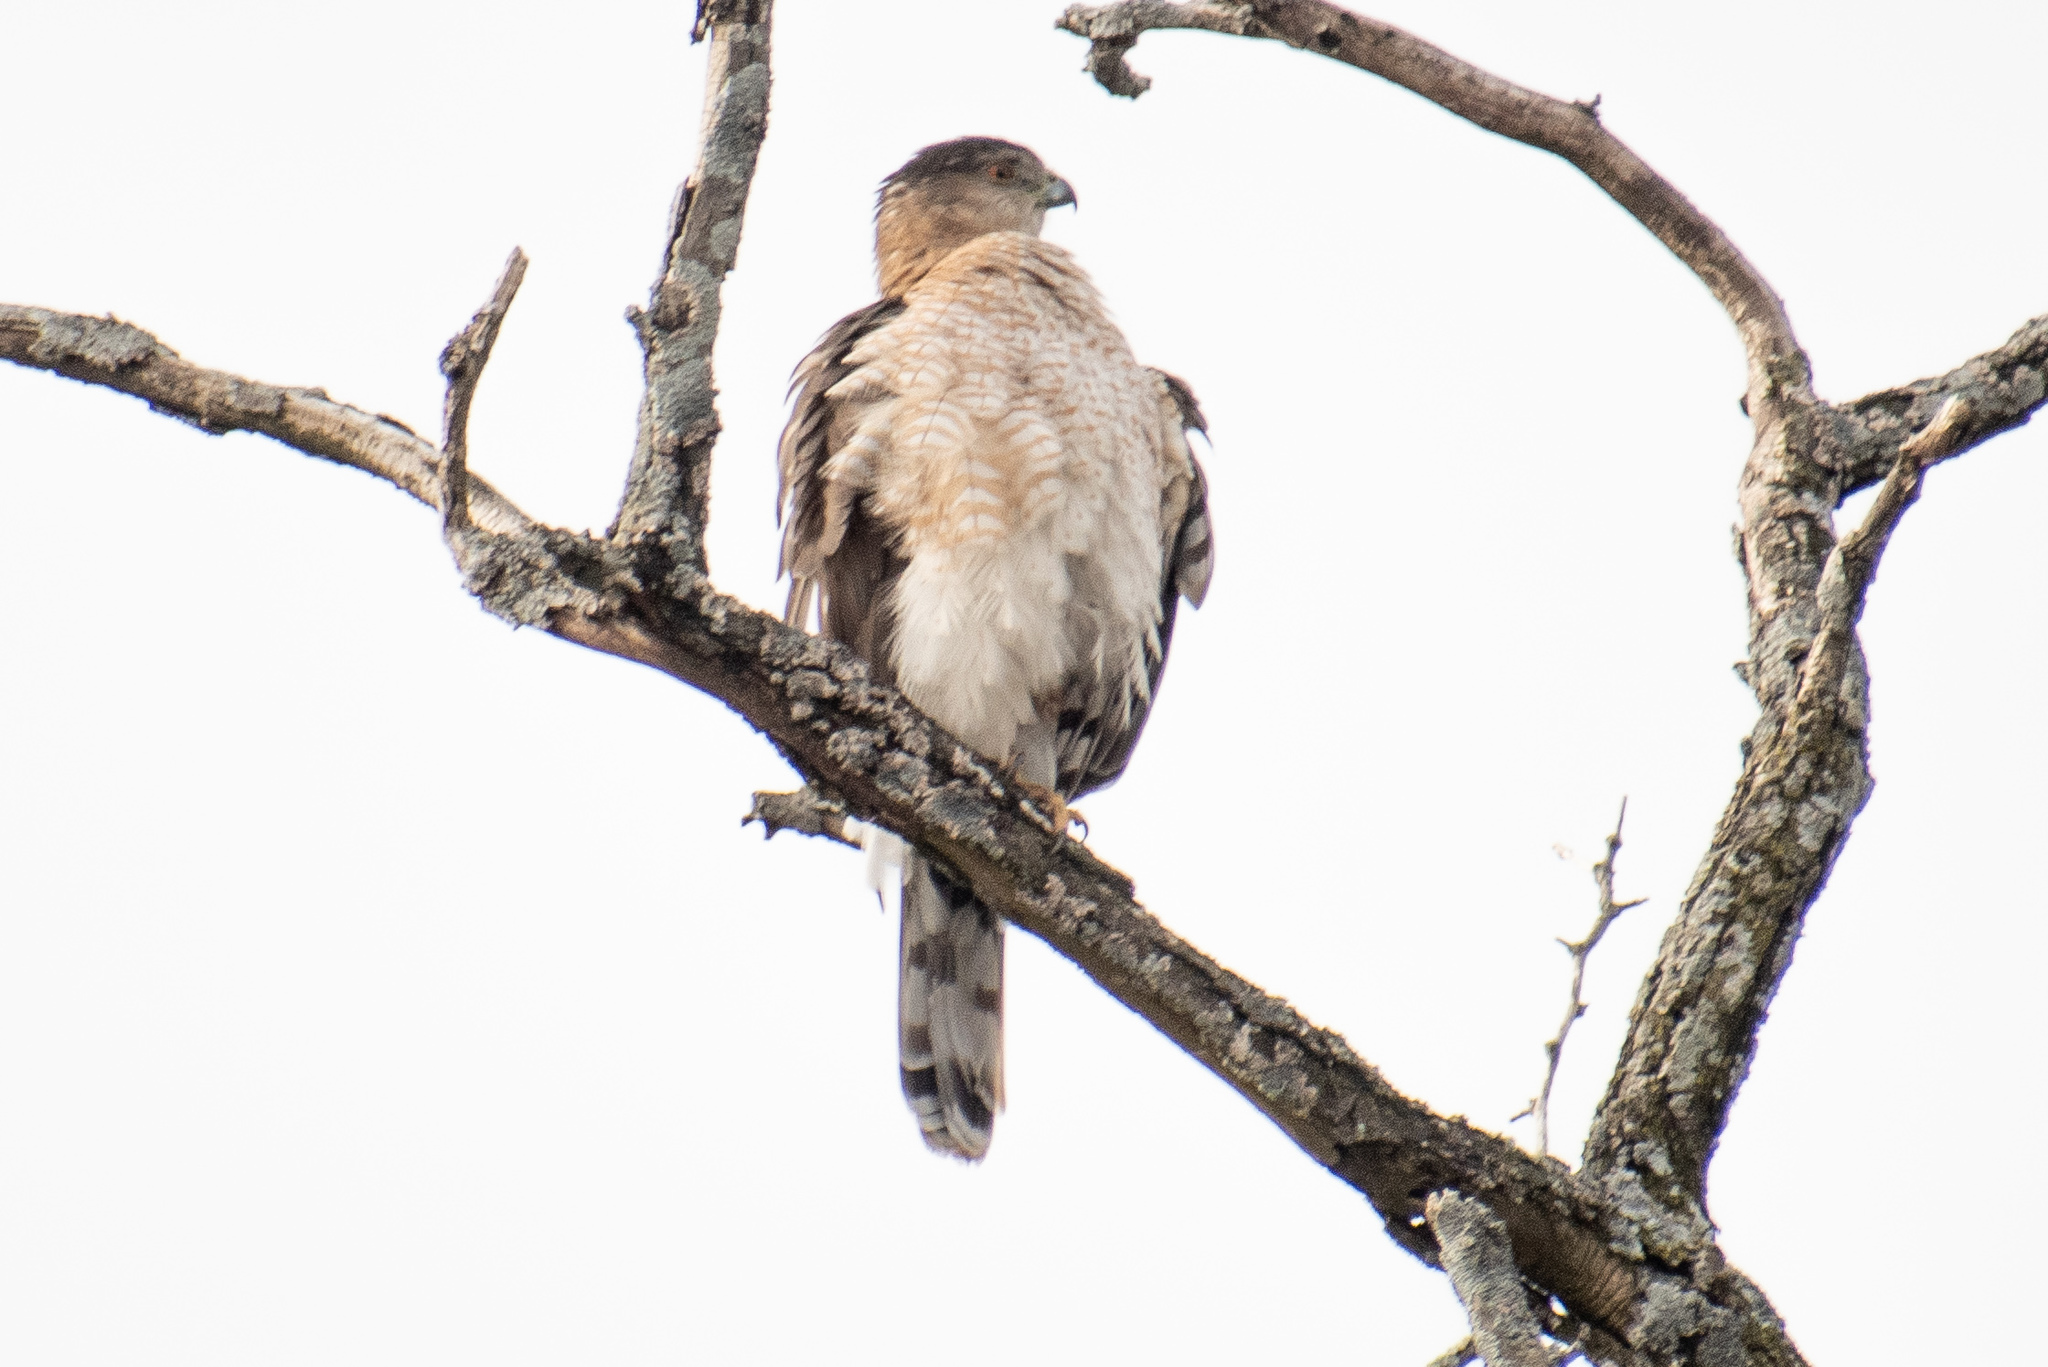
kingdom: Animalia
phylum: Chordata
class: Aves
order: Accipitriformes
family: Accipitridae
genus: Accipiter
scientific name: Accipiter cooperii
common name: Cooper's hawk
